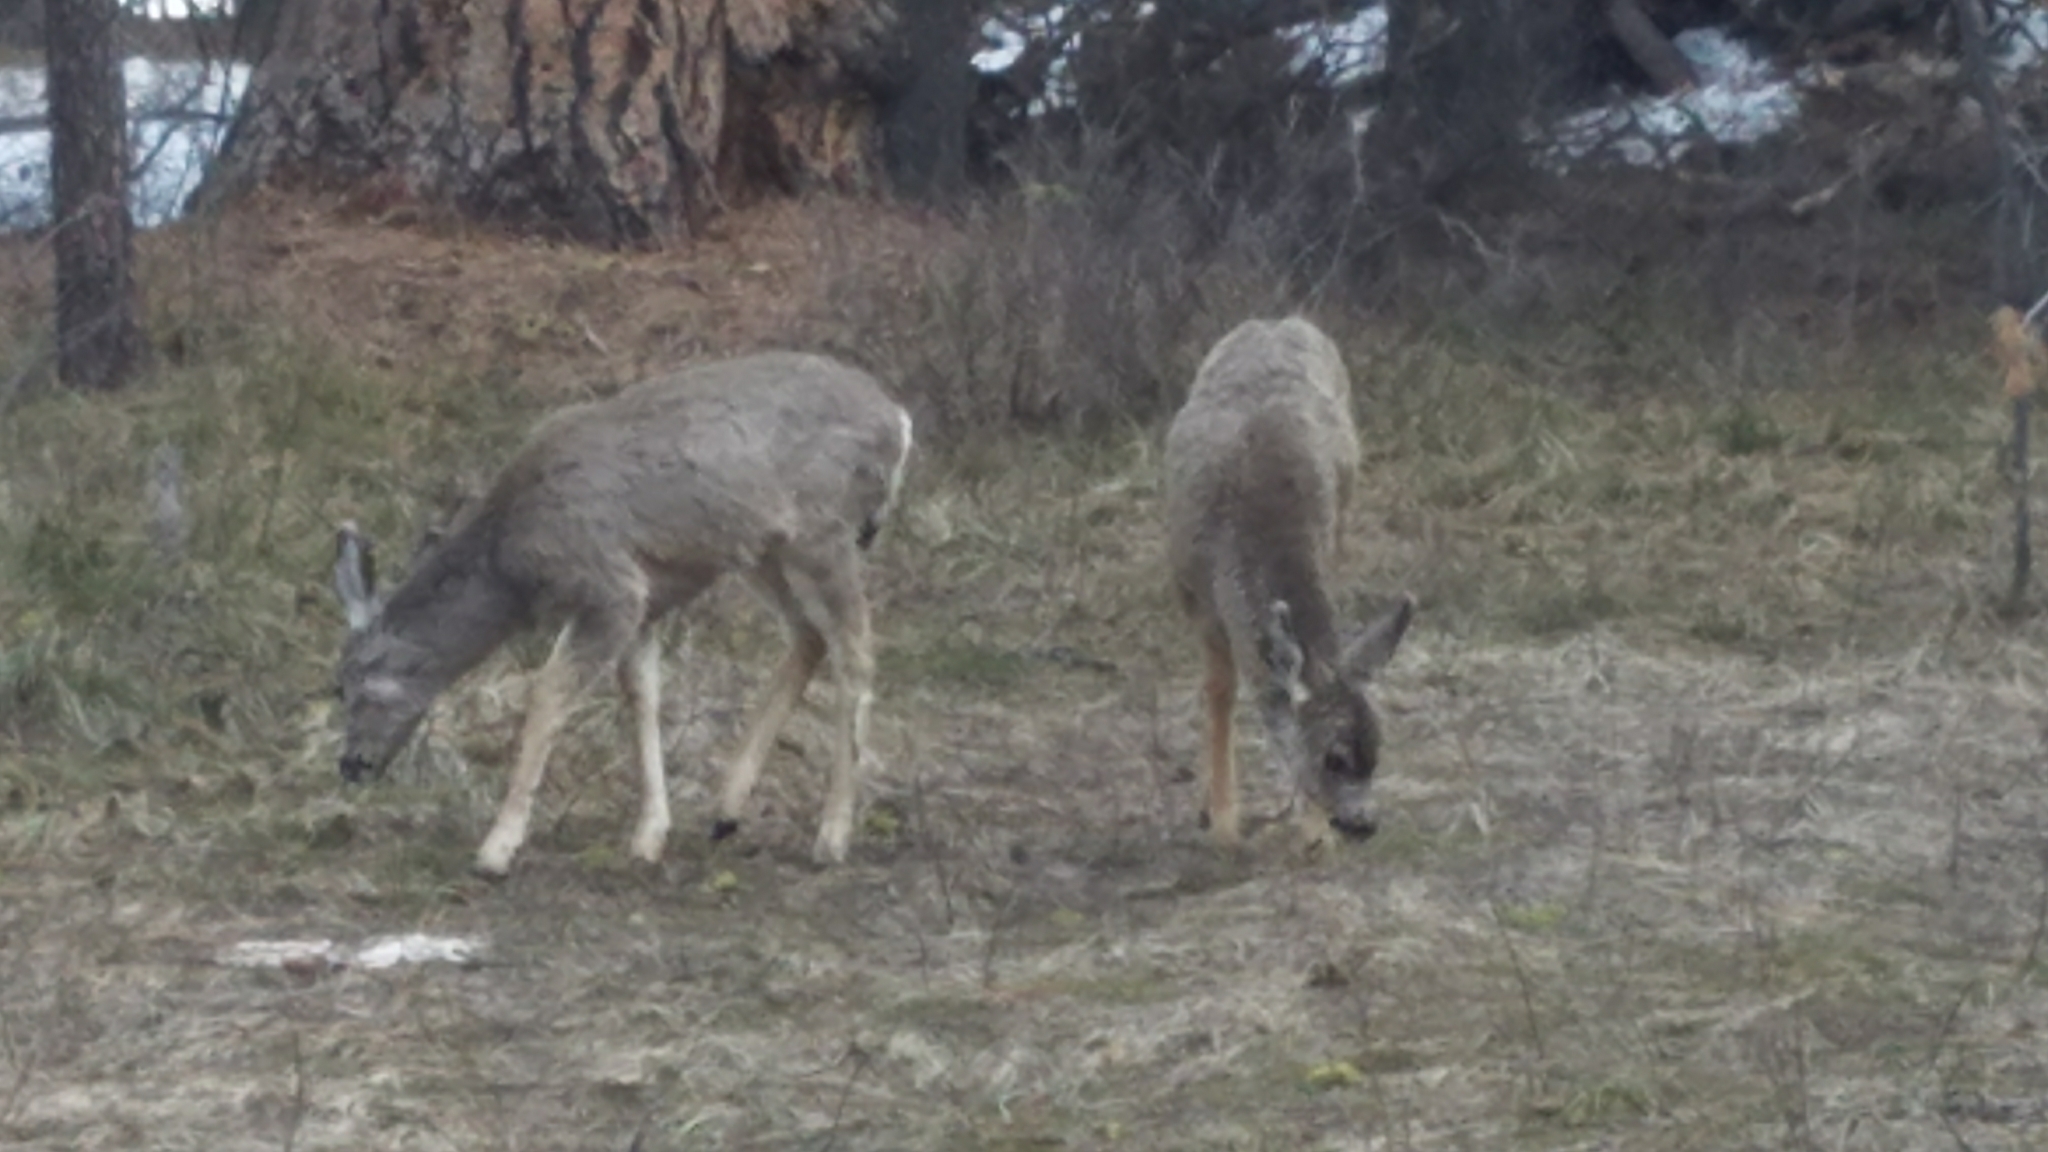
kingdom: Animalia
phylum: Chordata
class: Mammalia
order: Artiodactyla
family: Cervidae
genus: Odocoileus
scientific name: Odocoileus hemionus
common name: Mule deer
